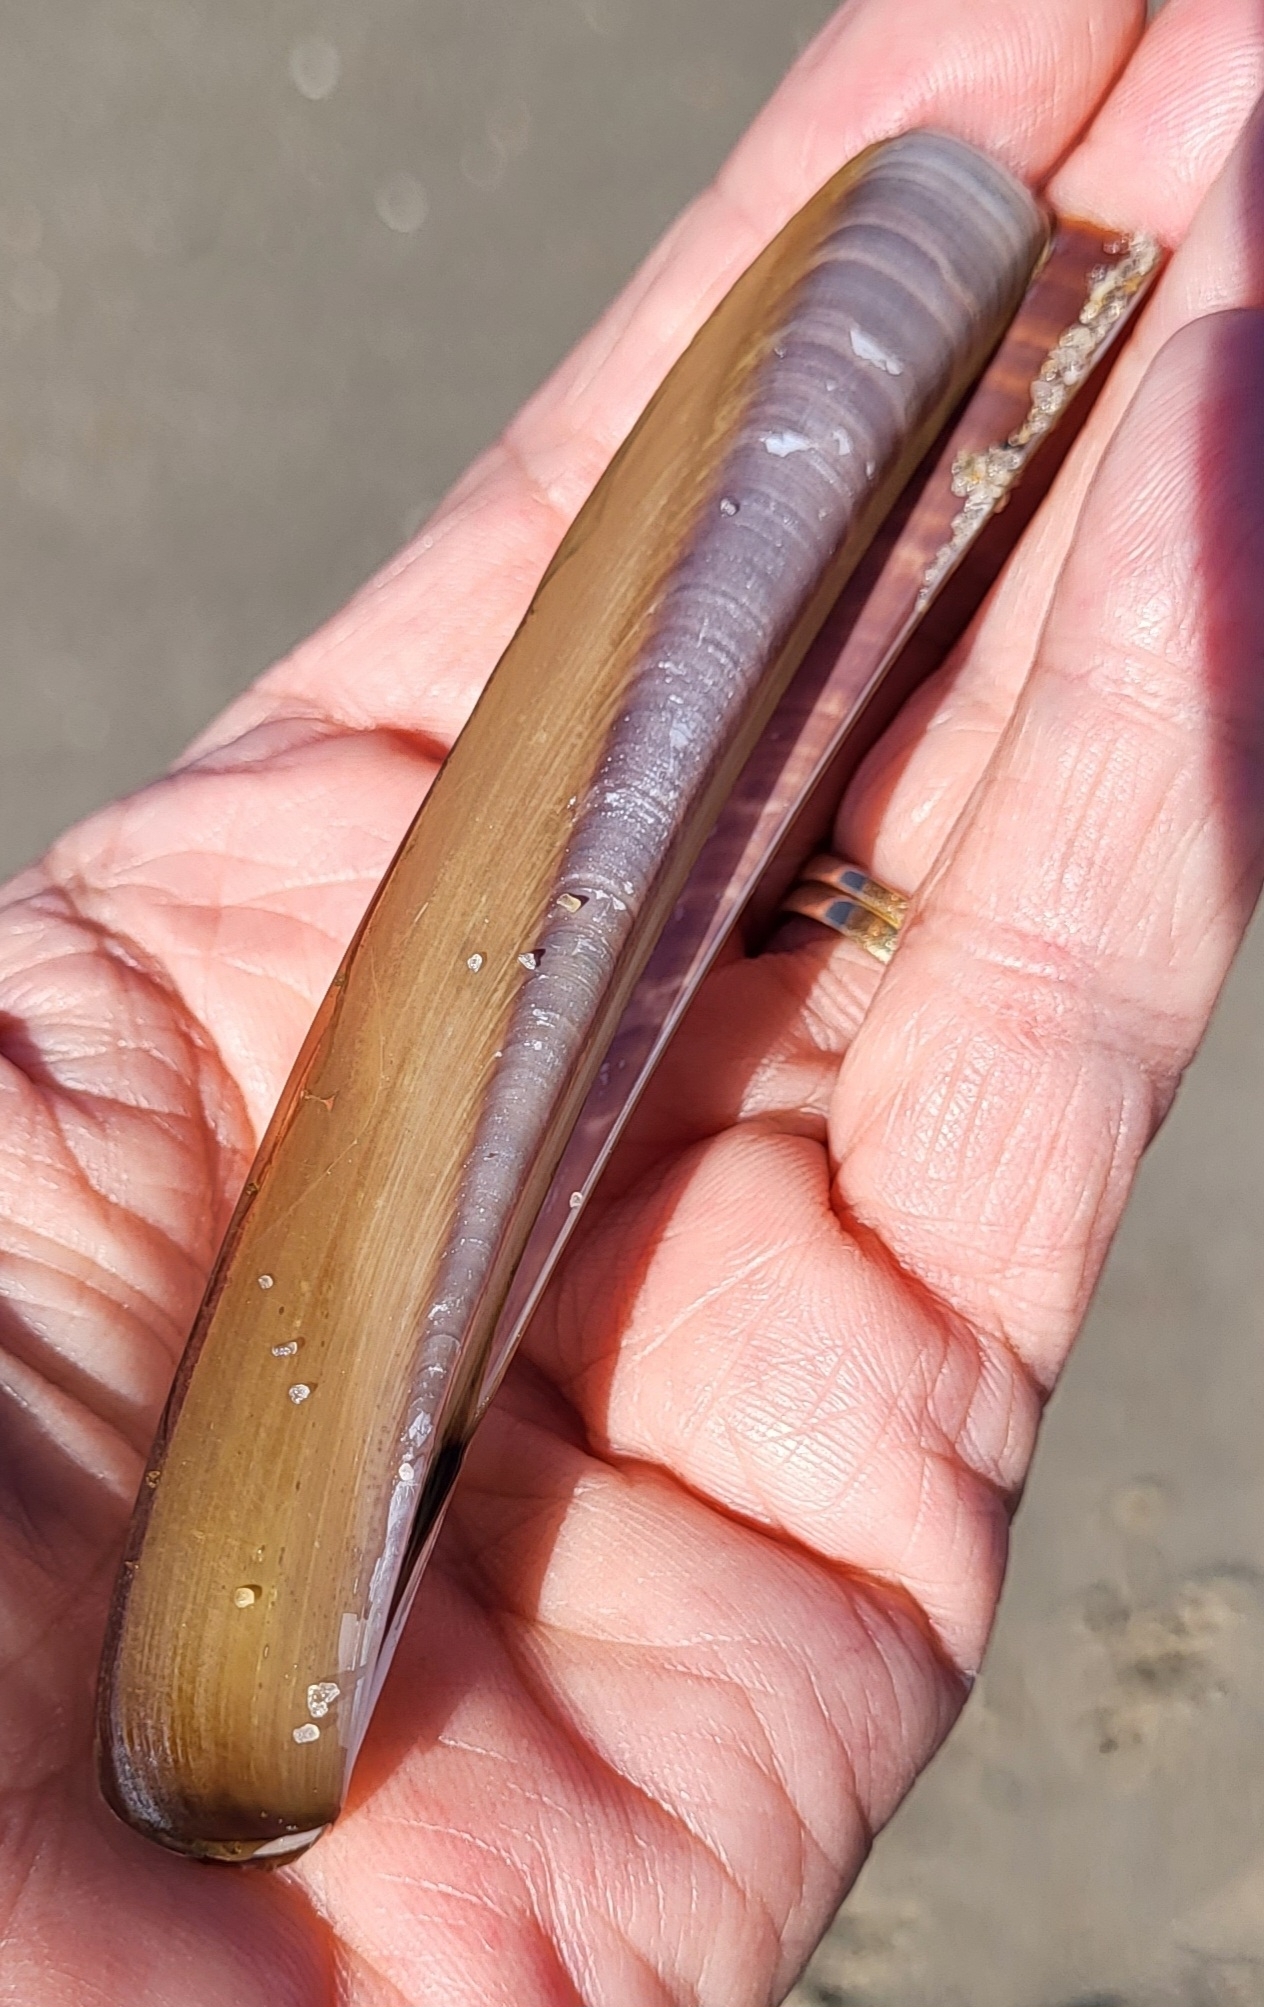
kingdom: Animalia
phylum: Mollusca
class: Bivalvia
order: Adapedonta
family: Pharidae
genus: Ensis
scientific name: Ensis leei
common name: American jack knife clam
